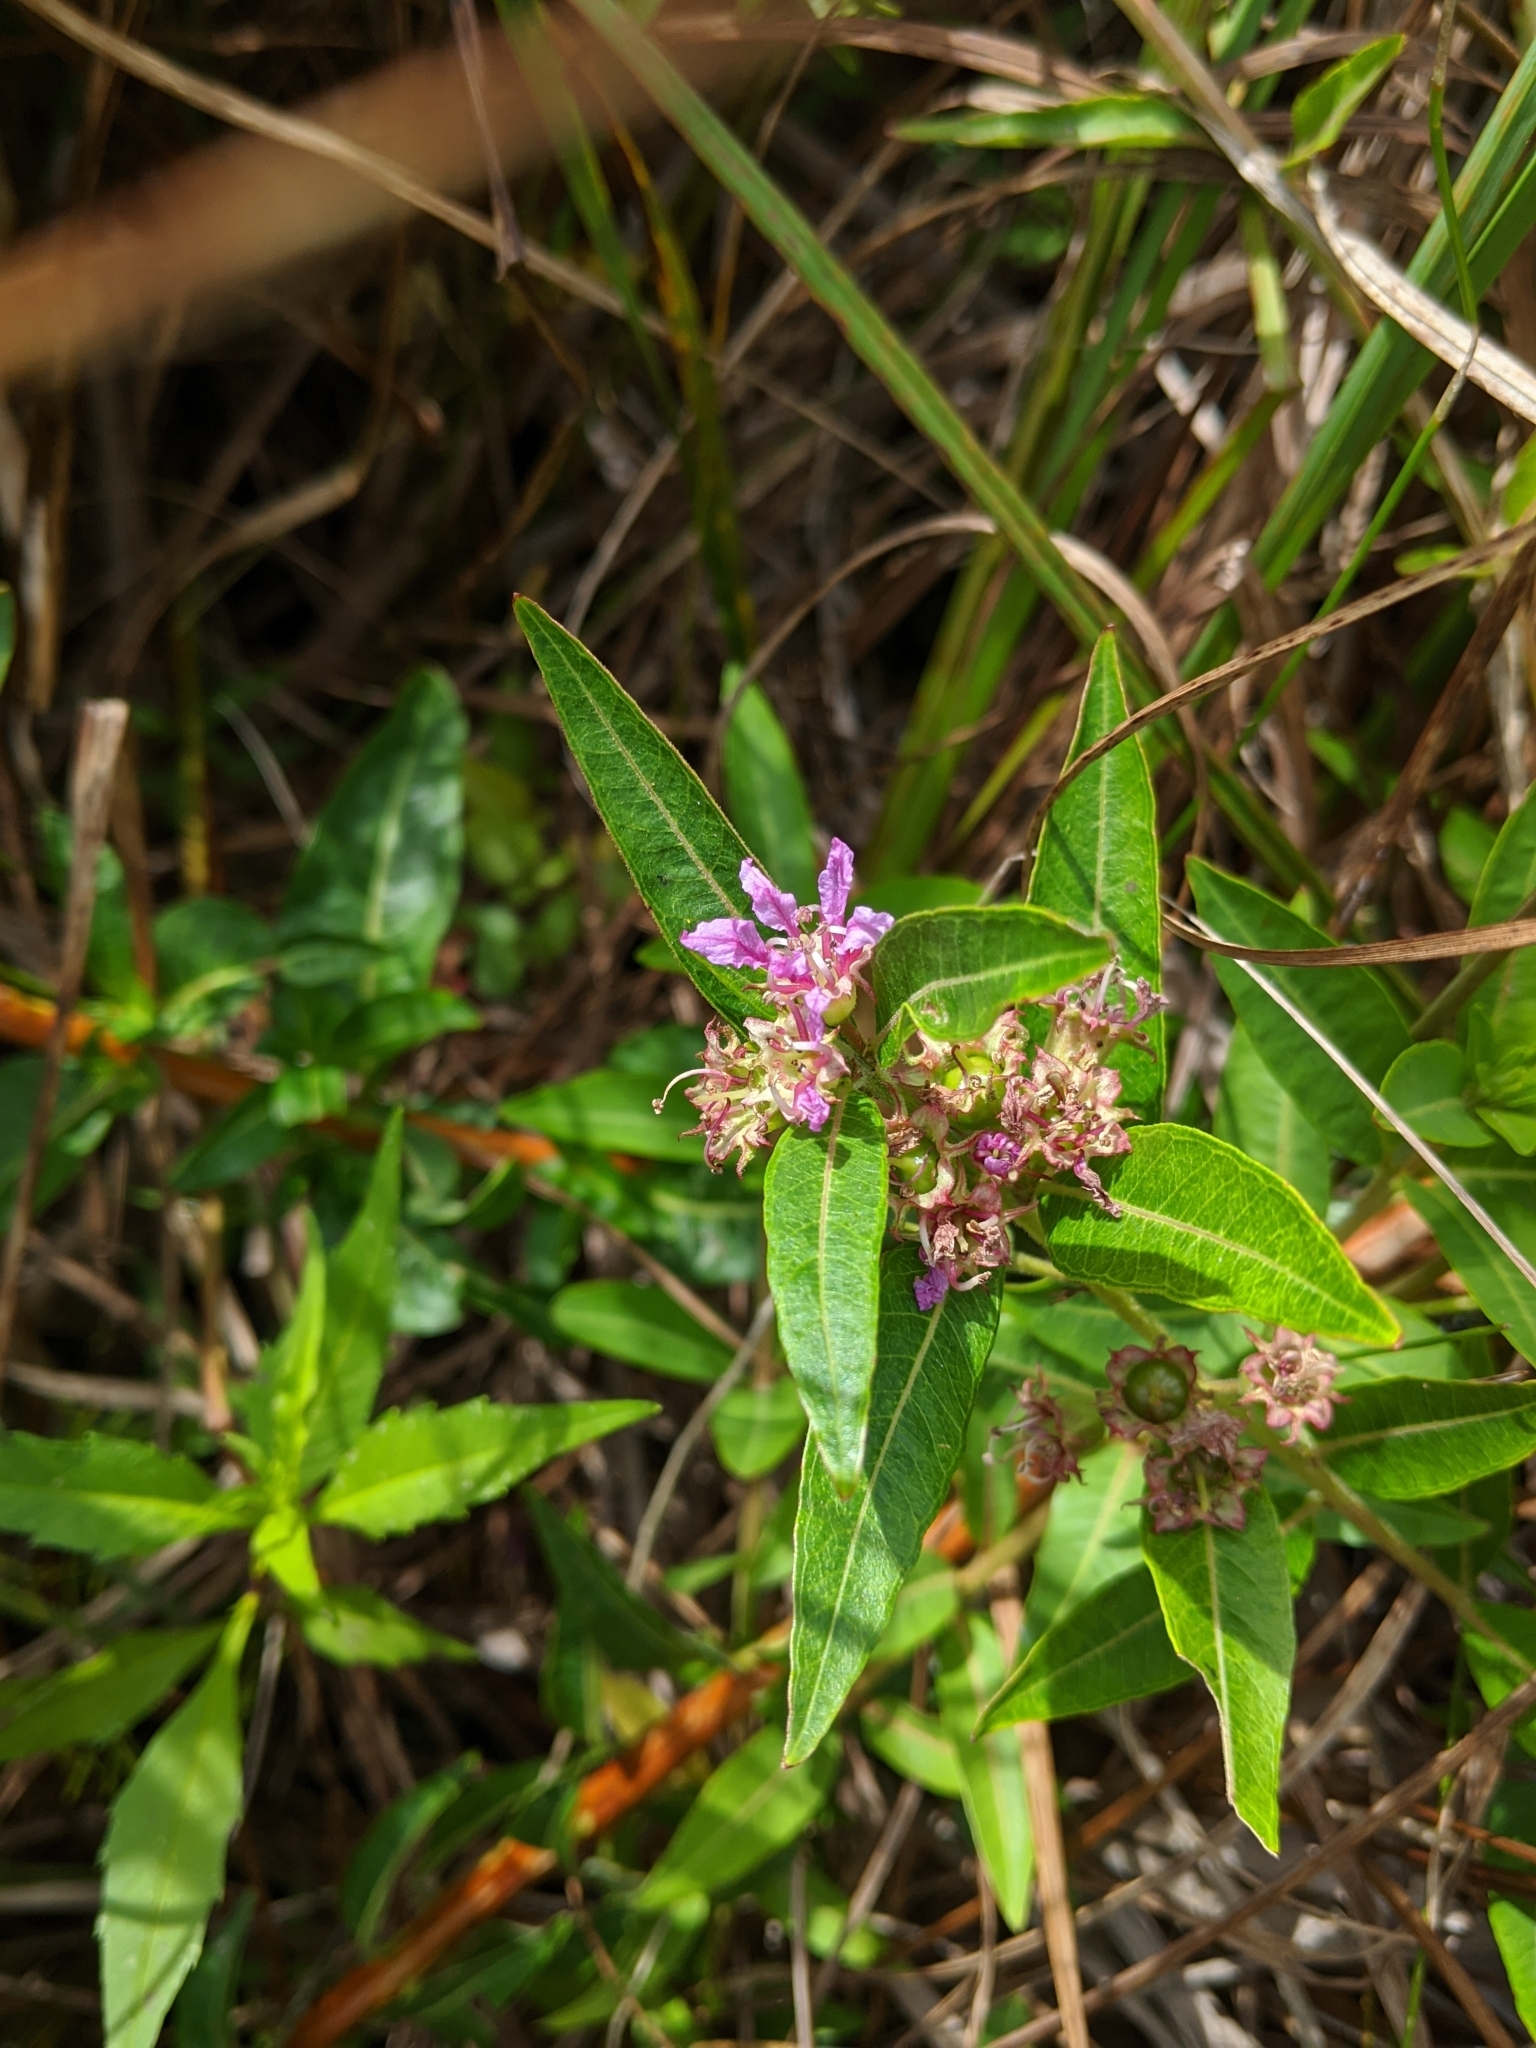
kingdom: Plantae
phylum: Tracheophyta
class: Magnoliopsida
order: Myrtales
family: Lythraceae
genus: Decodon
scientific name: Decodon verticillatus
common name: Hairy swamp loosestrife
